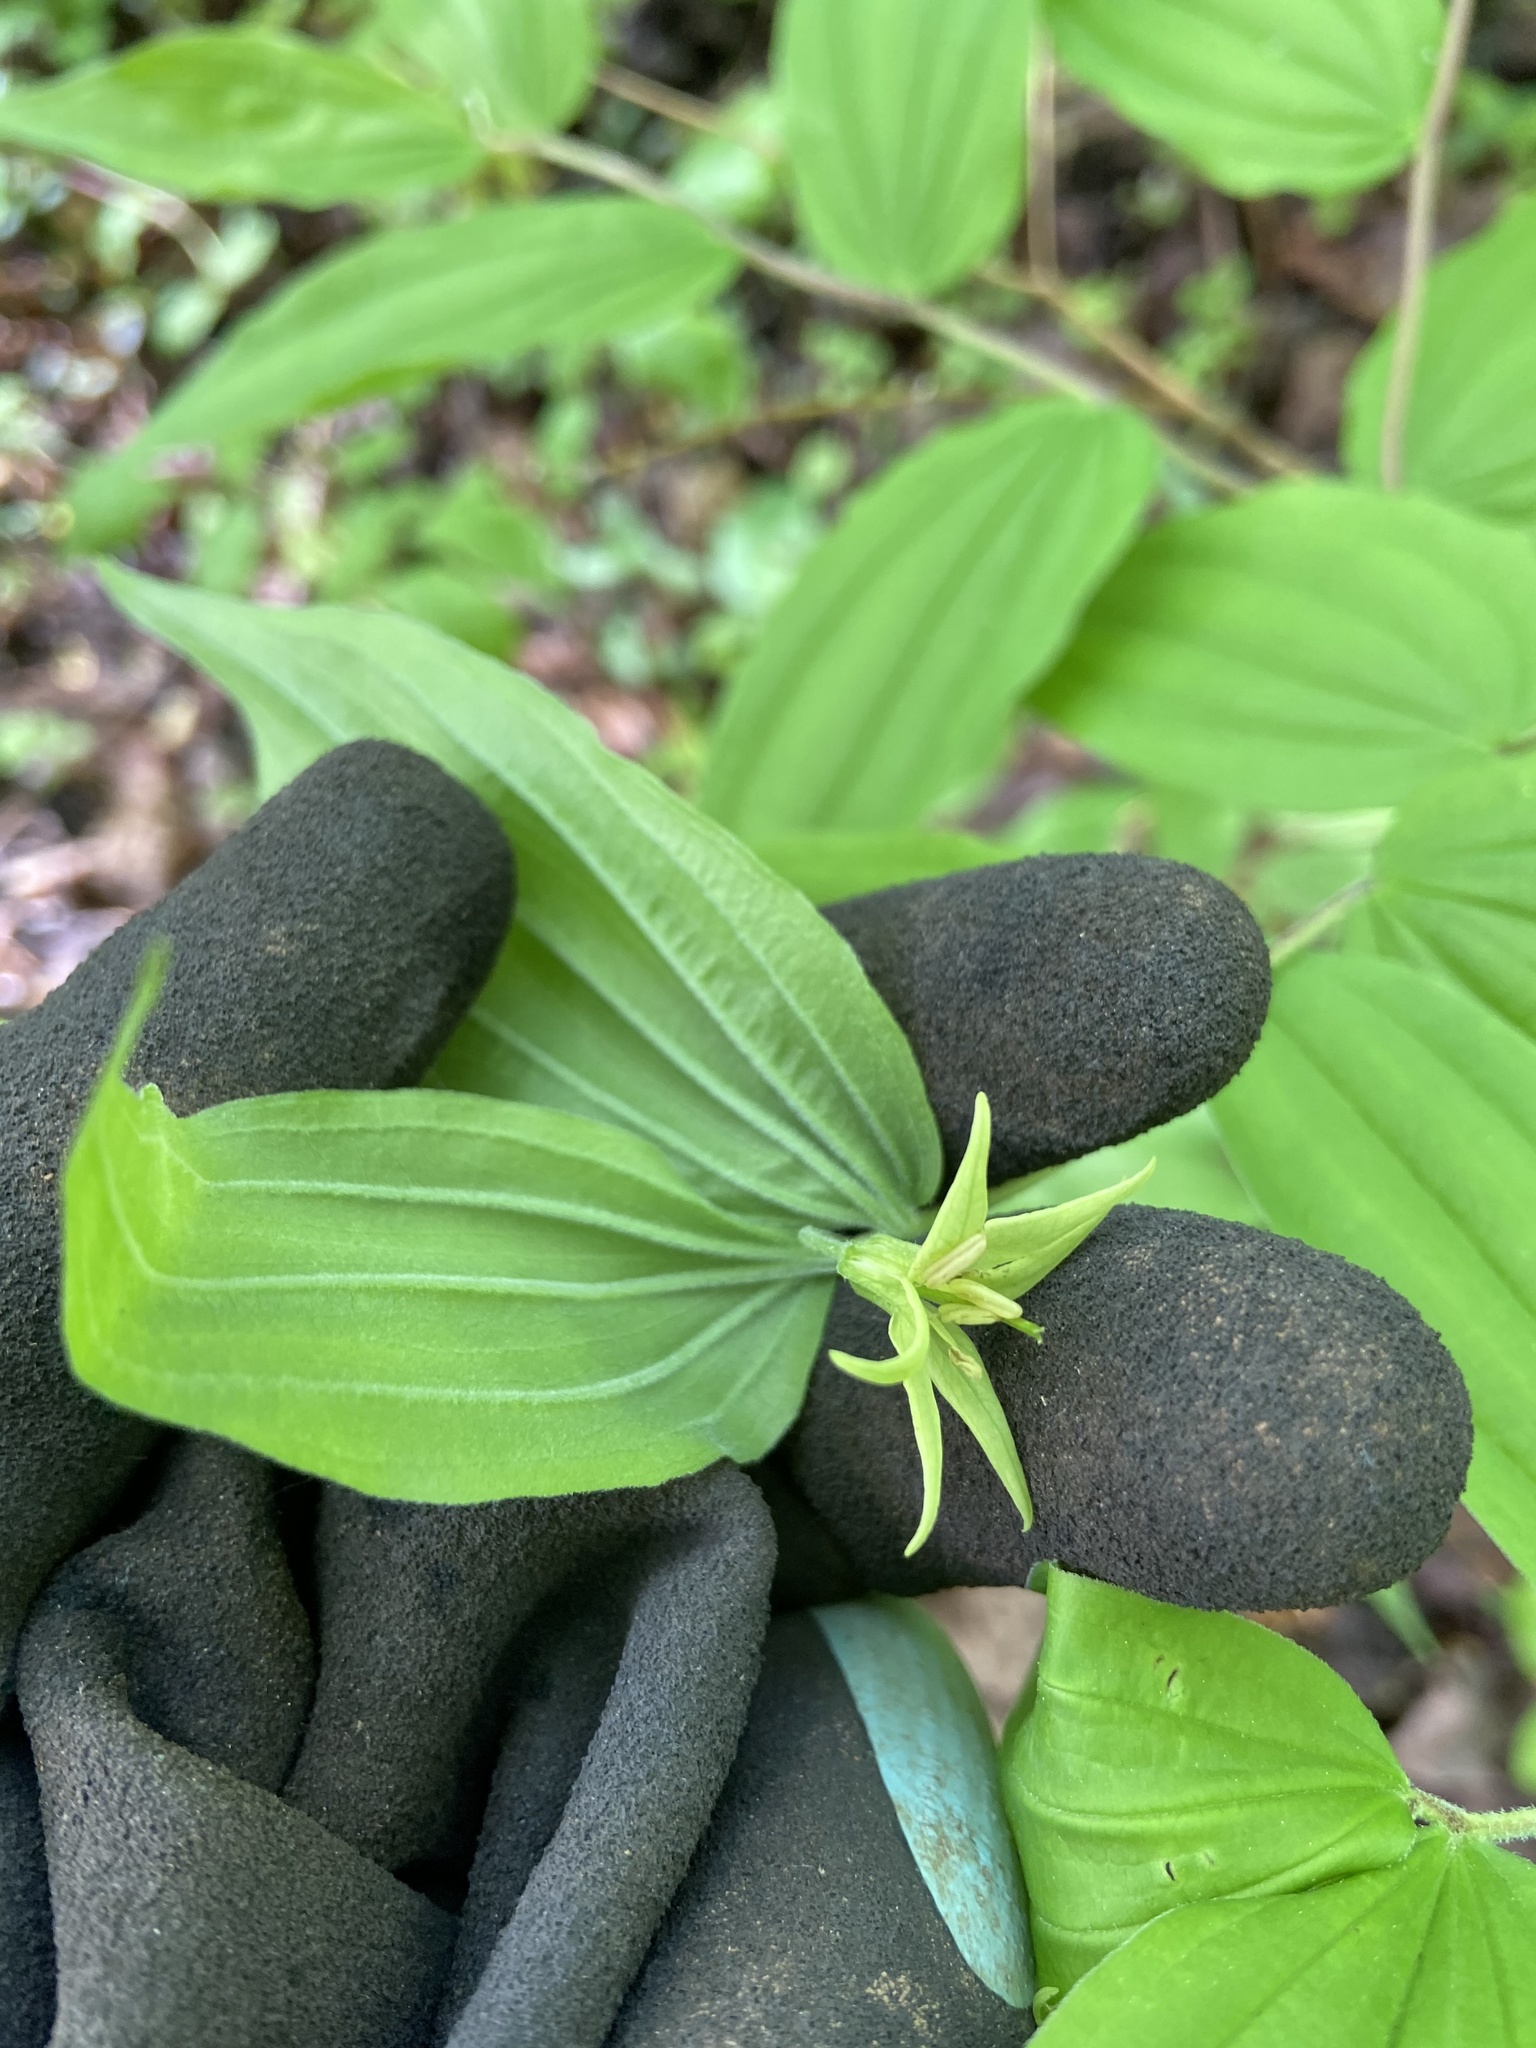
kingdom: Plantae
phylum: Tracheophyta
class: Liliopsida
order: Liliales
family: Liliaceae
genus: Prosartes
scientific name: Prosartes lanuginosa
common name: Hairy mandarin
